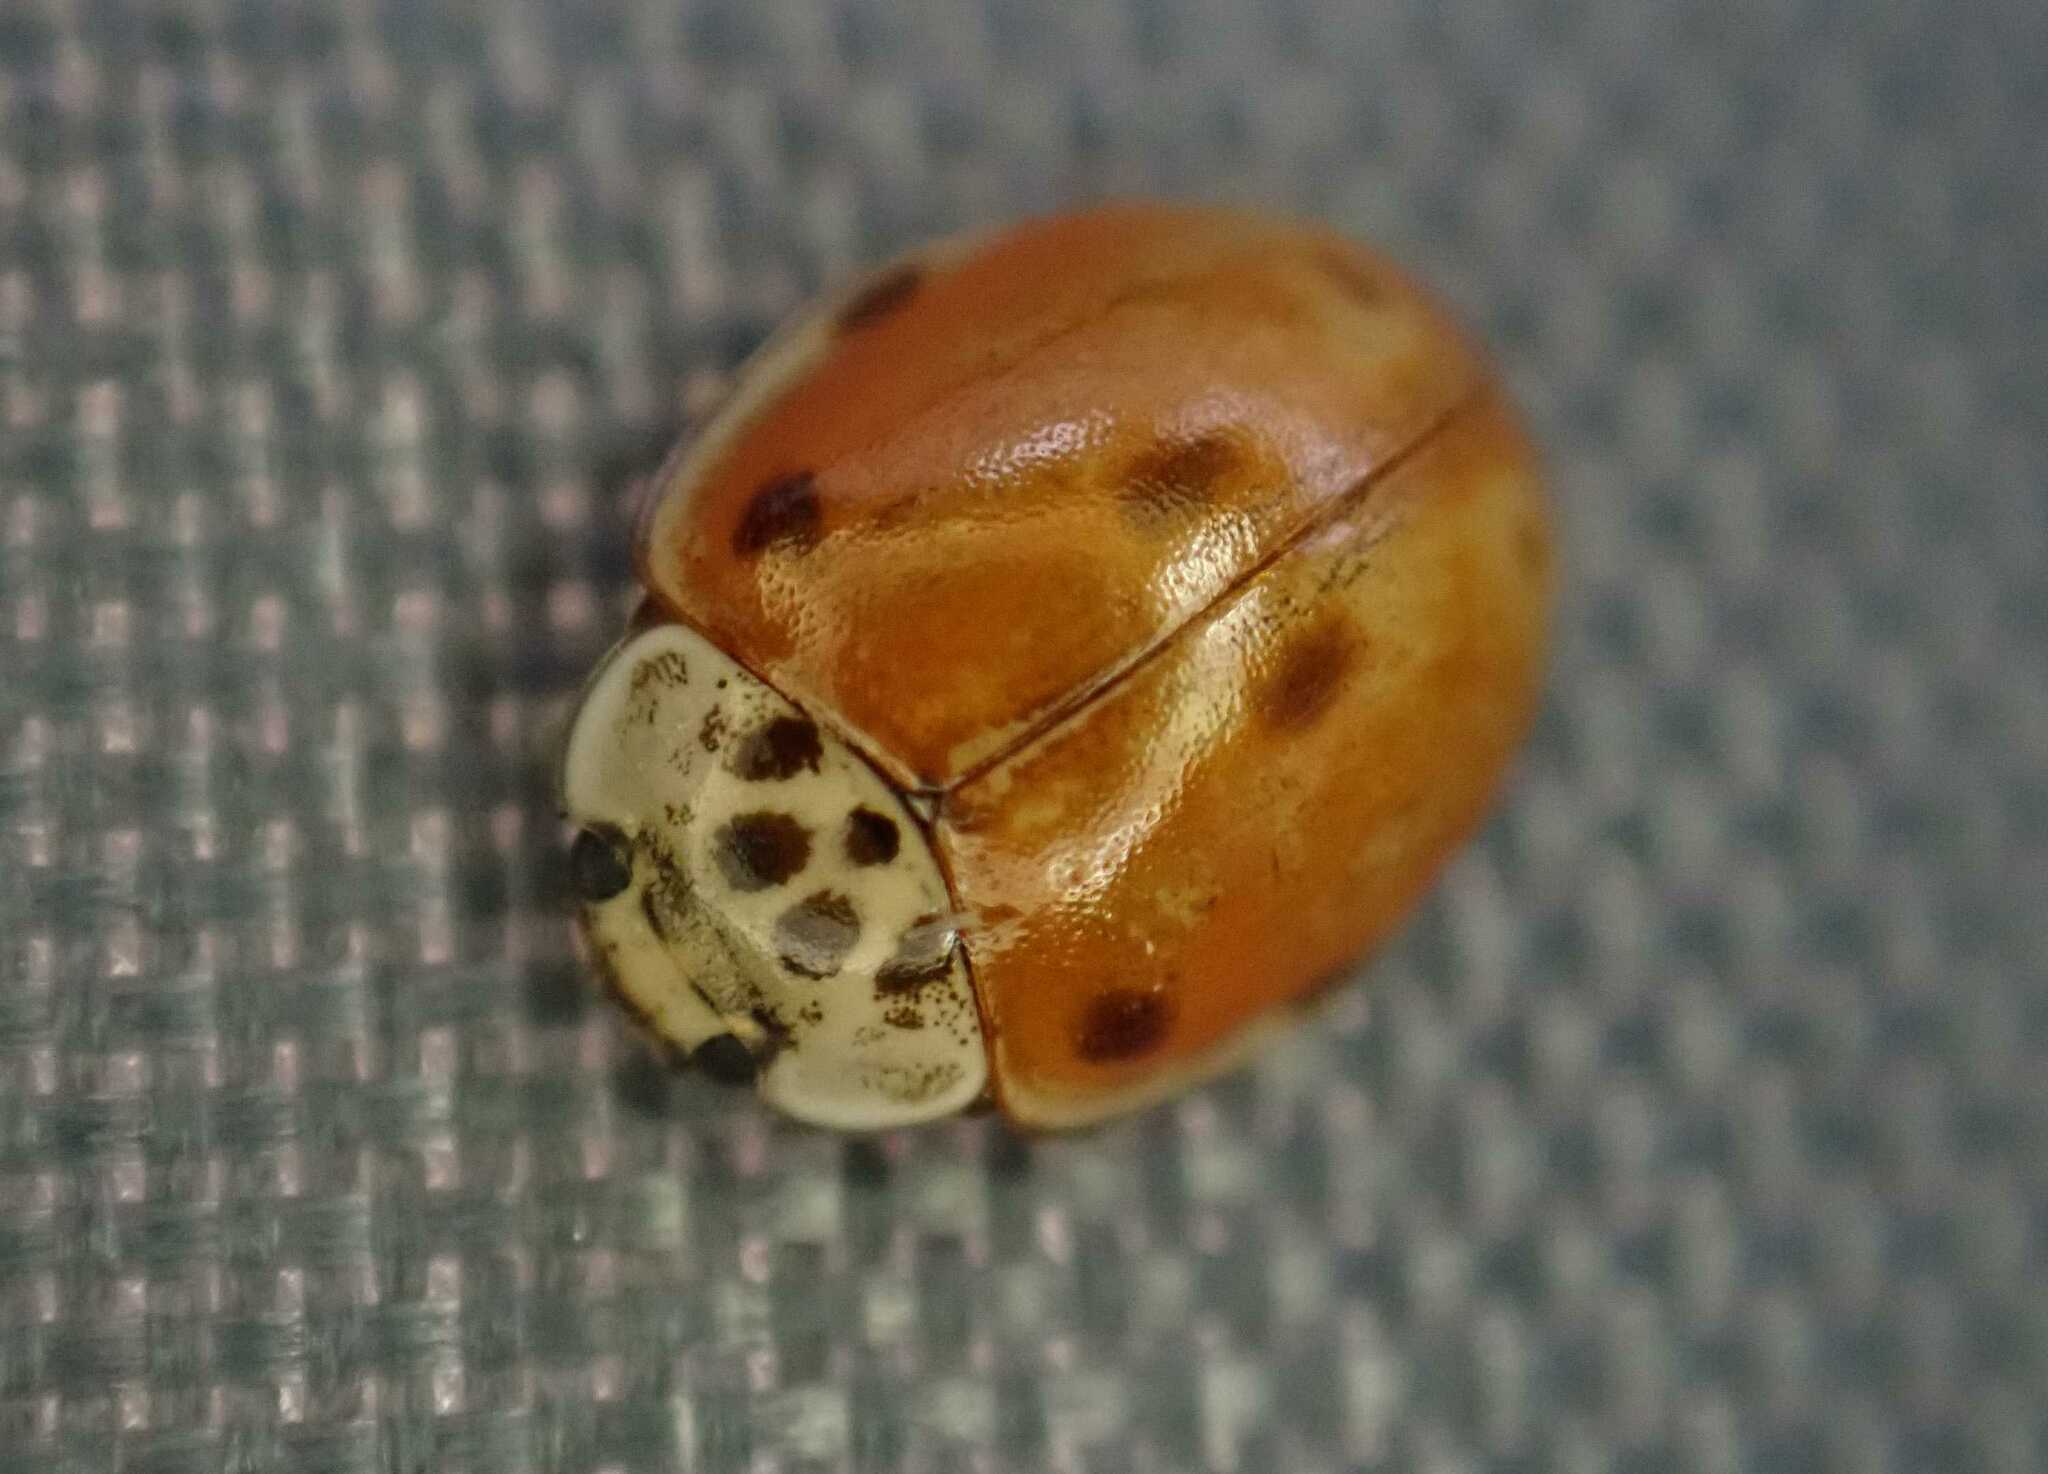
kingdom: Animalia
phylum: Arthropoda
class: Insecta
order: Coleoptera
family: Coccinellidae
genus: Adalia
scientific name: Adalia decempunctata
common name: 10-spot ladybird
